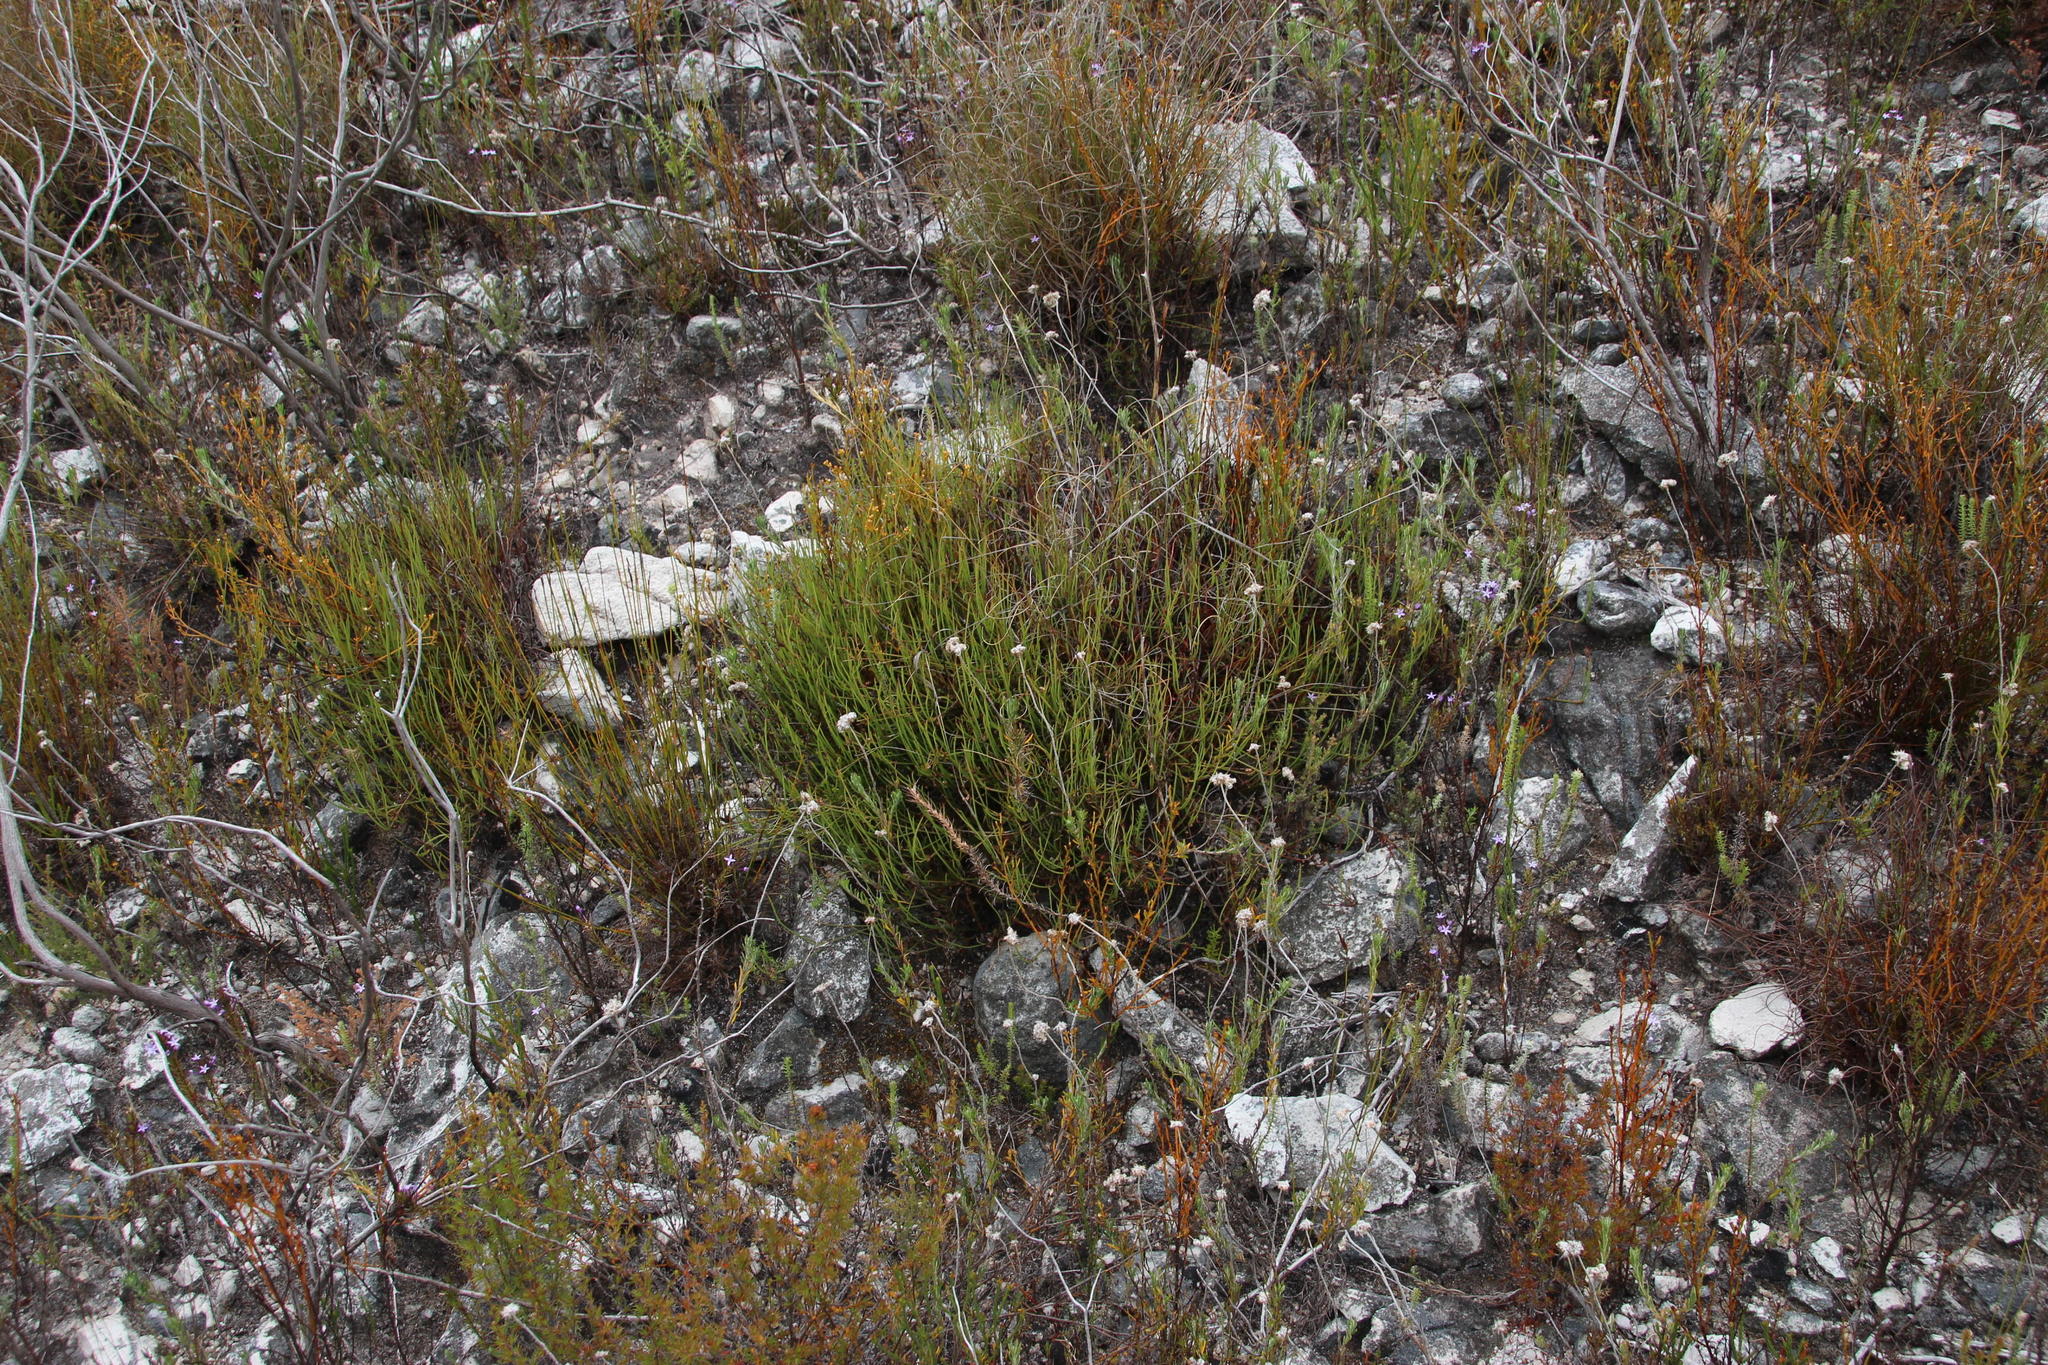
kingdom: Plantae
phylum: Tracheophyta
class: Magnoliopsida
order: Apiales
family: Apiaceae
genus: Centella
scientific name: Centella restioides
